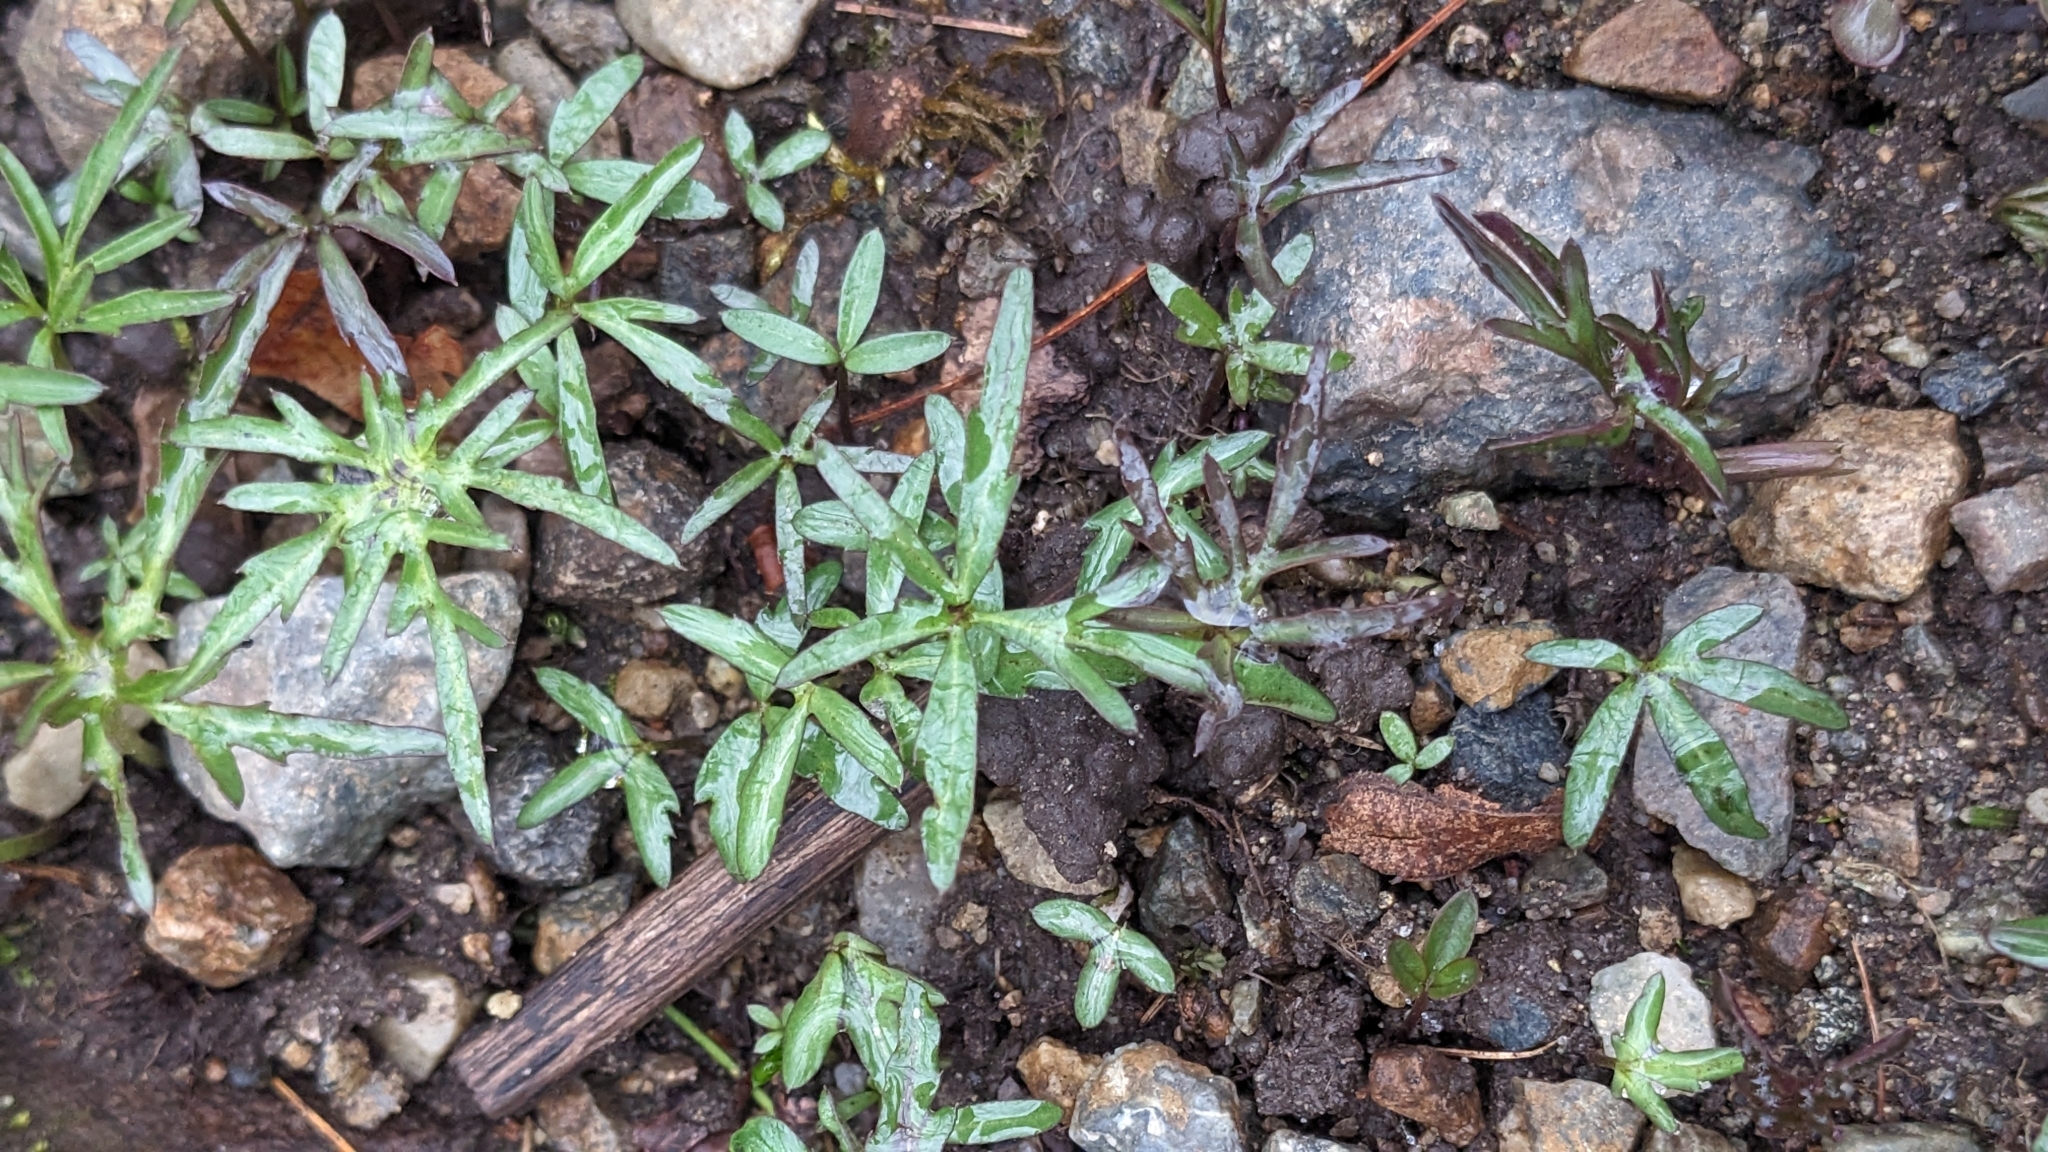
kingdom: Plantae
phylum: Tracheophyta
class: Magnoliopsida
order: Brassicales
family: Brassicaceae
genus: Cardamine
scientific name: Cardamine concatenata
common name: Cut-leaf toothcup
